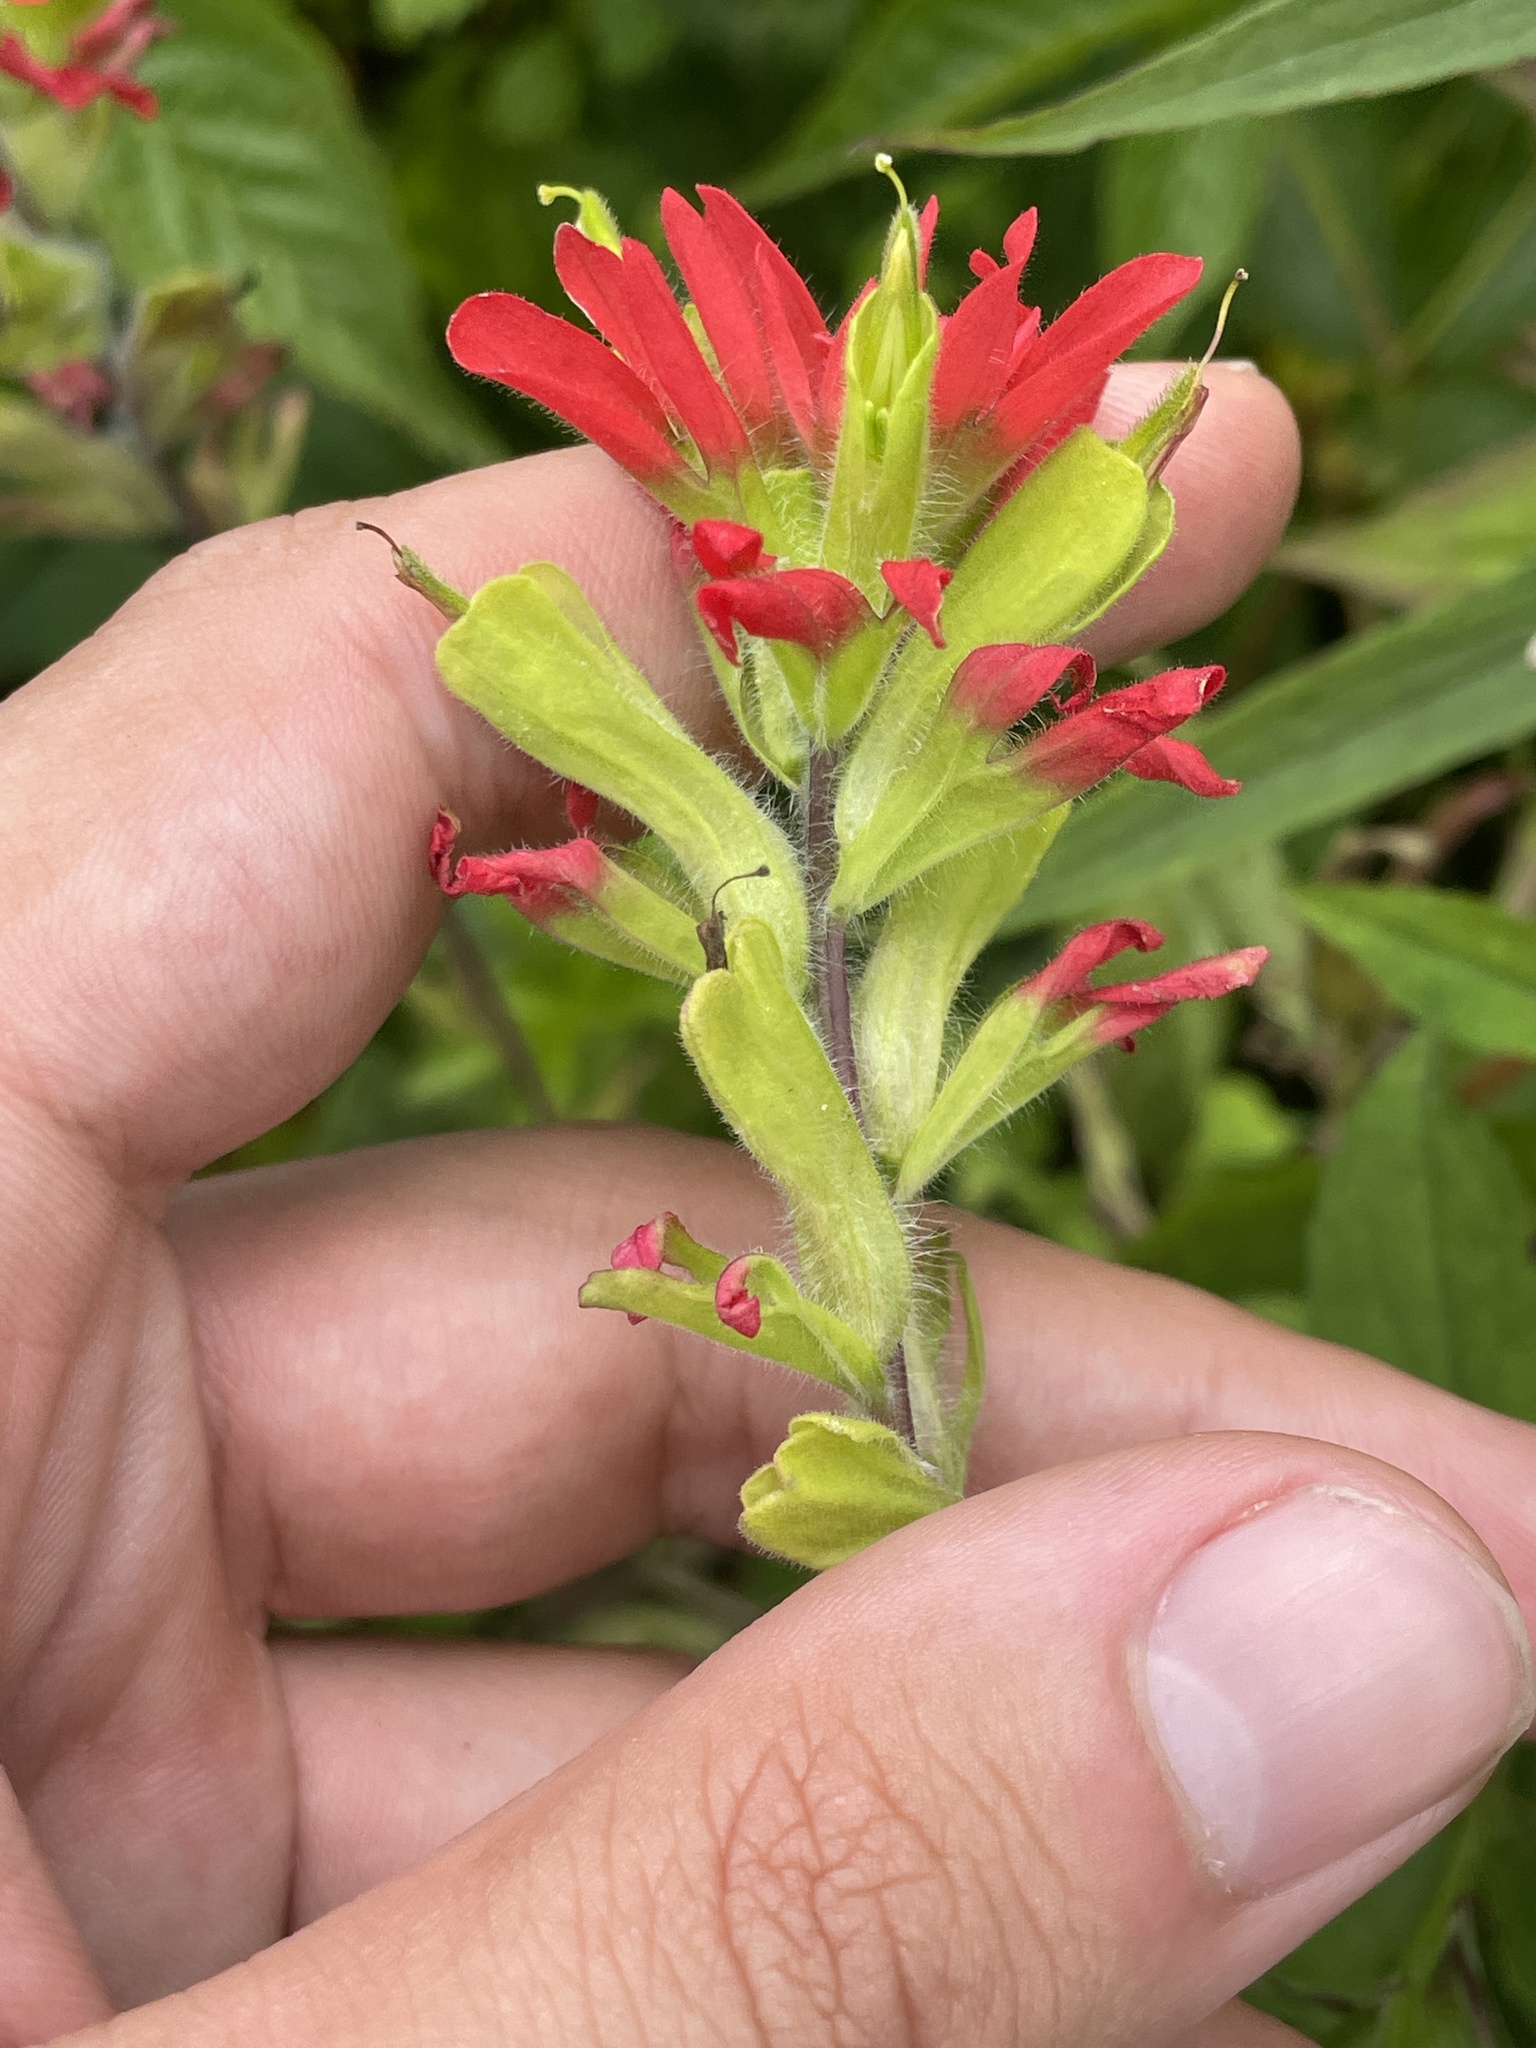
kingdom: Plantae
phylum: Tracheophyta
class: Magnoliopsida
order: Lamiales
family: Orobanchaceae
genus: Castilleja
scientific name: Castilleja coccinea
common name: Scarlet paintbrush
